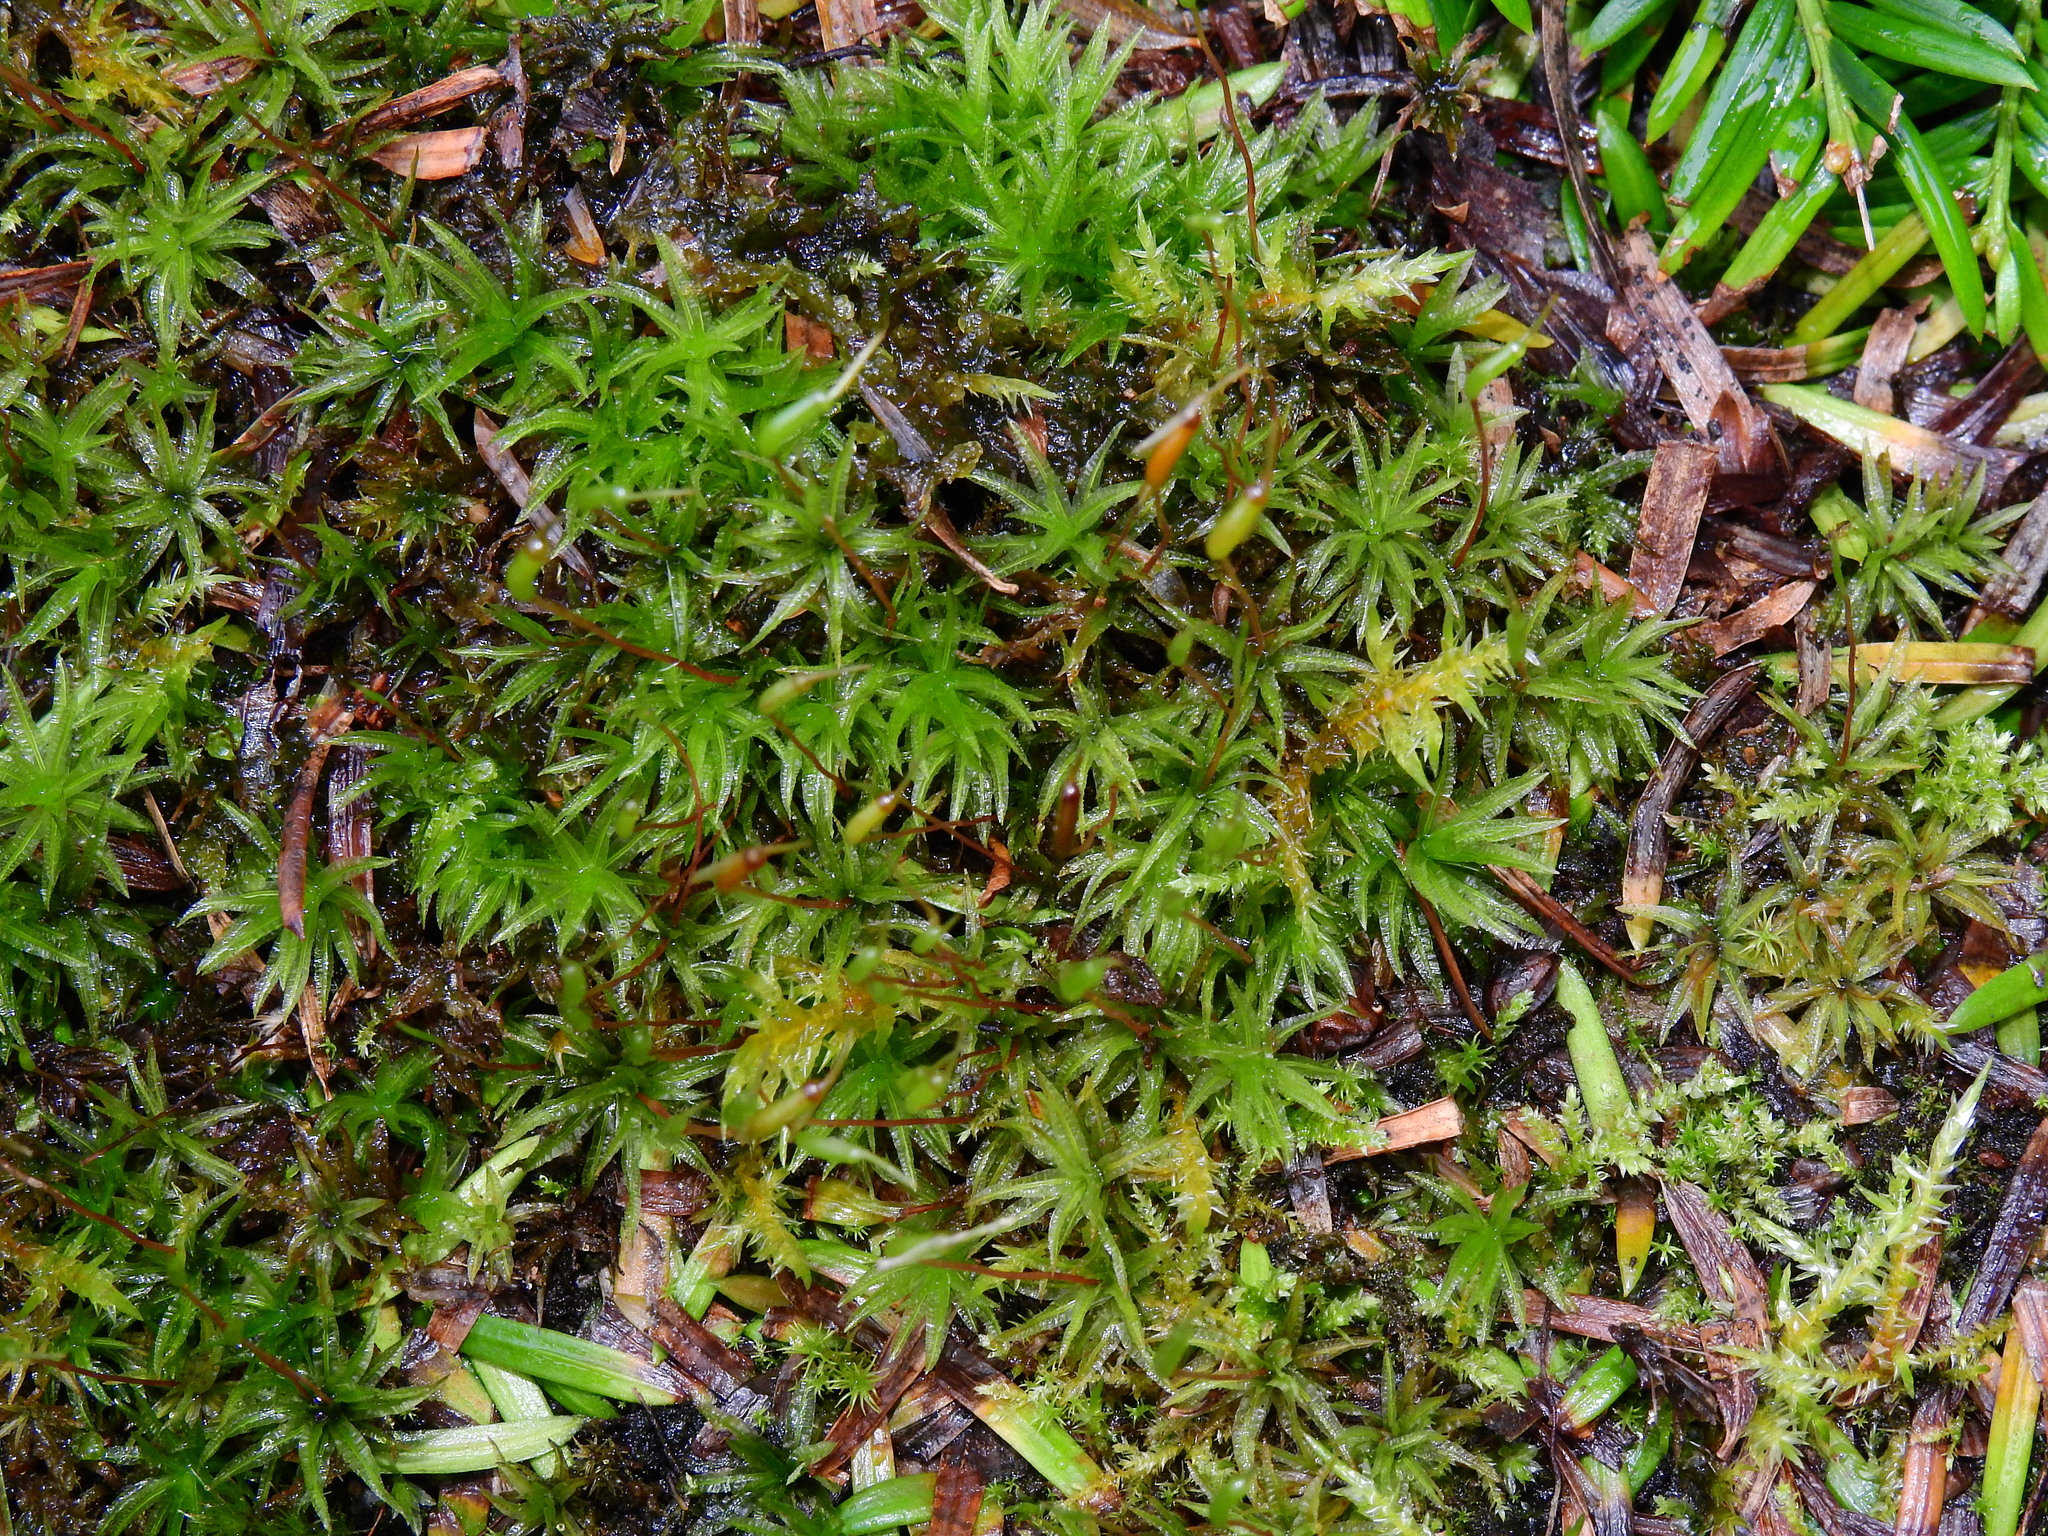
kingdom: Plantae
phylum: Bryophyta
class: Polytrichopsida
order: Polytrichales
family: Polytrichaceae
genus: Atrichum
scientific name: Atrichum undulatum
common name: Common smoothcap
